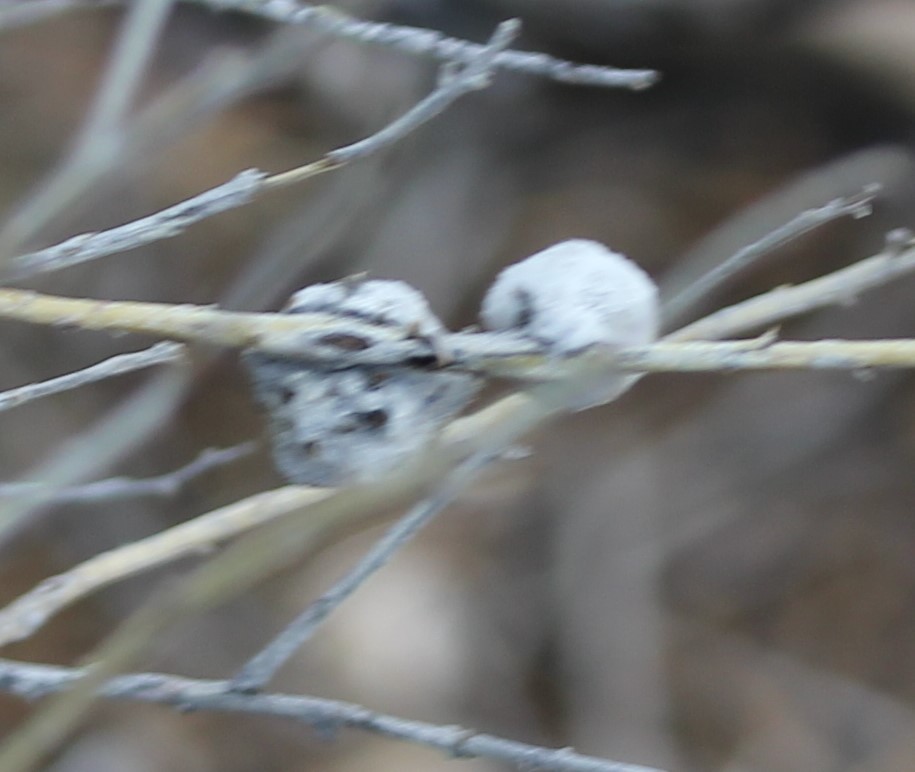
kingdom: Animalia
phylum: Arthropoda
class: Insecta
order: Diptera
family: Tephritidae
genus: Aciurina
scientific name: Aciurina bigeloviae
